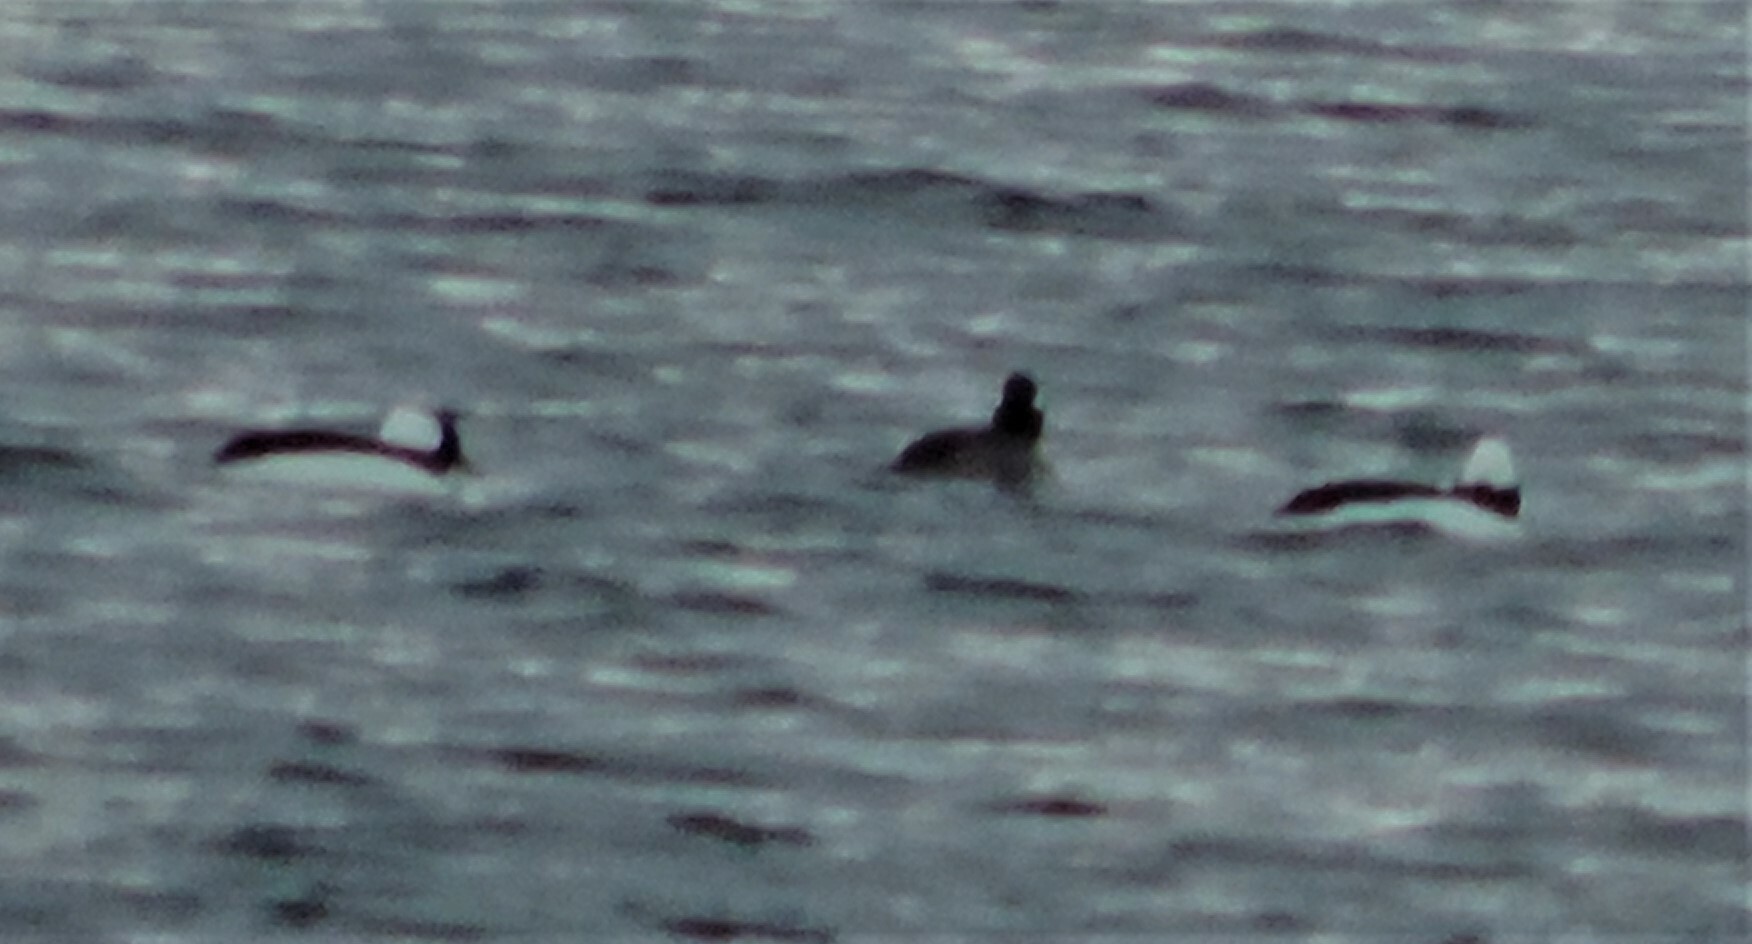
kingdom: Animalia
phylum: Chordata
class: Aves
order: Anseriformes
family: Anatidae
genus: Bucephala
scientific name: Bucephala albeola
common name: Bufflehead
